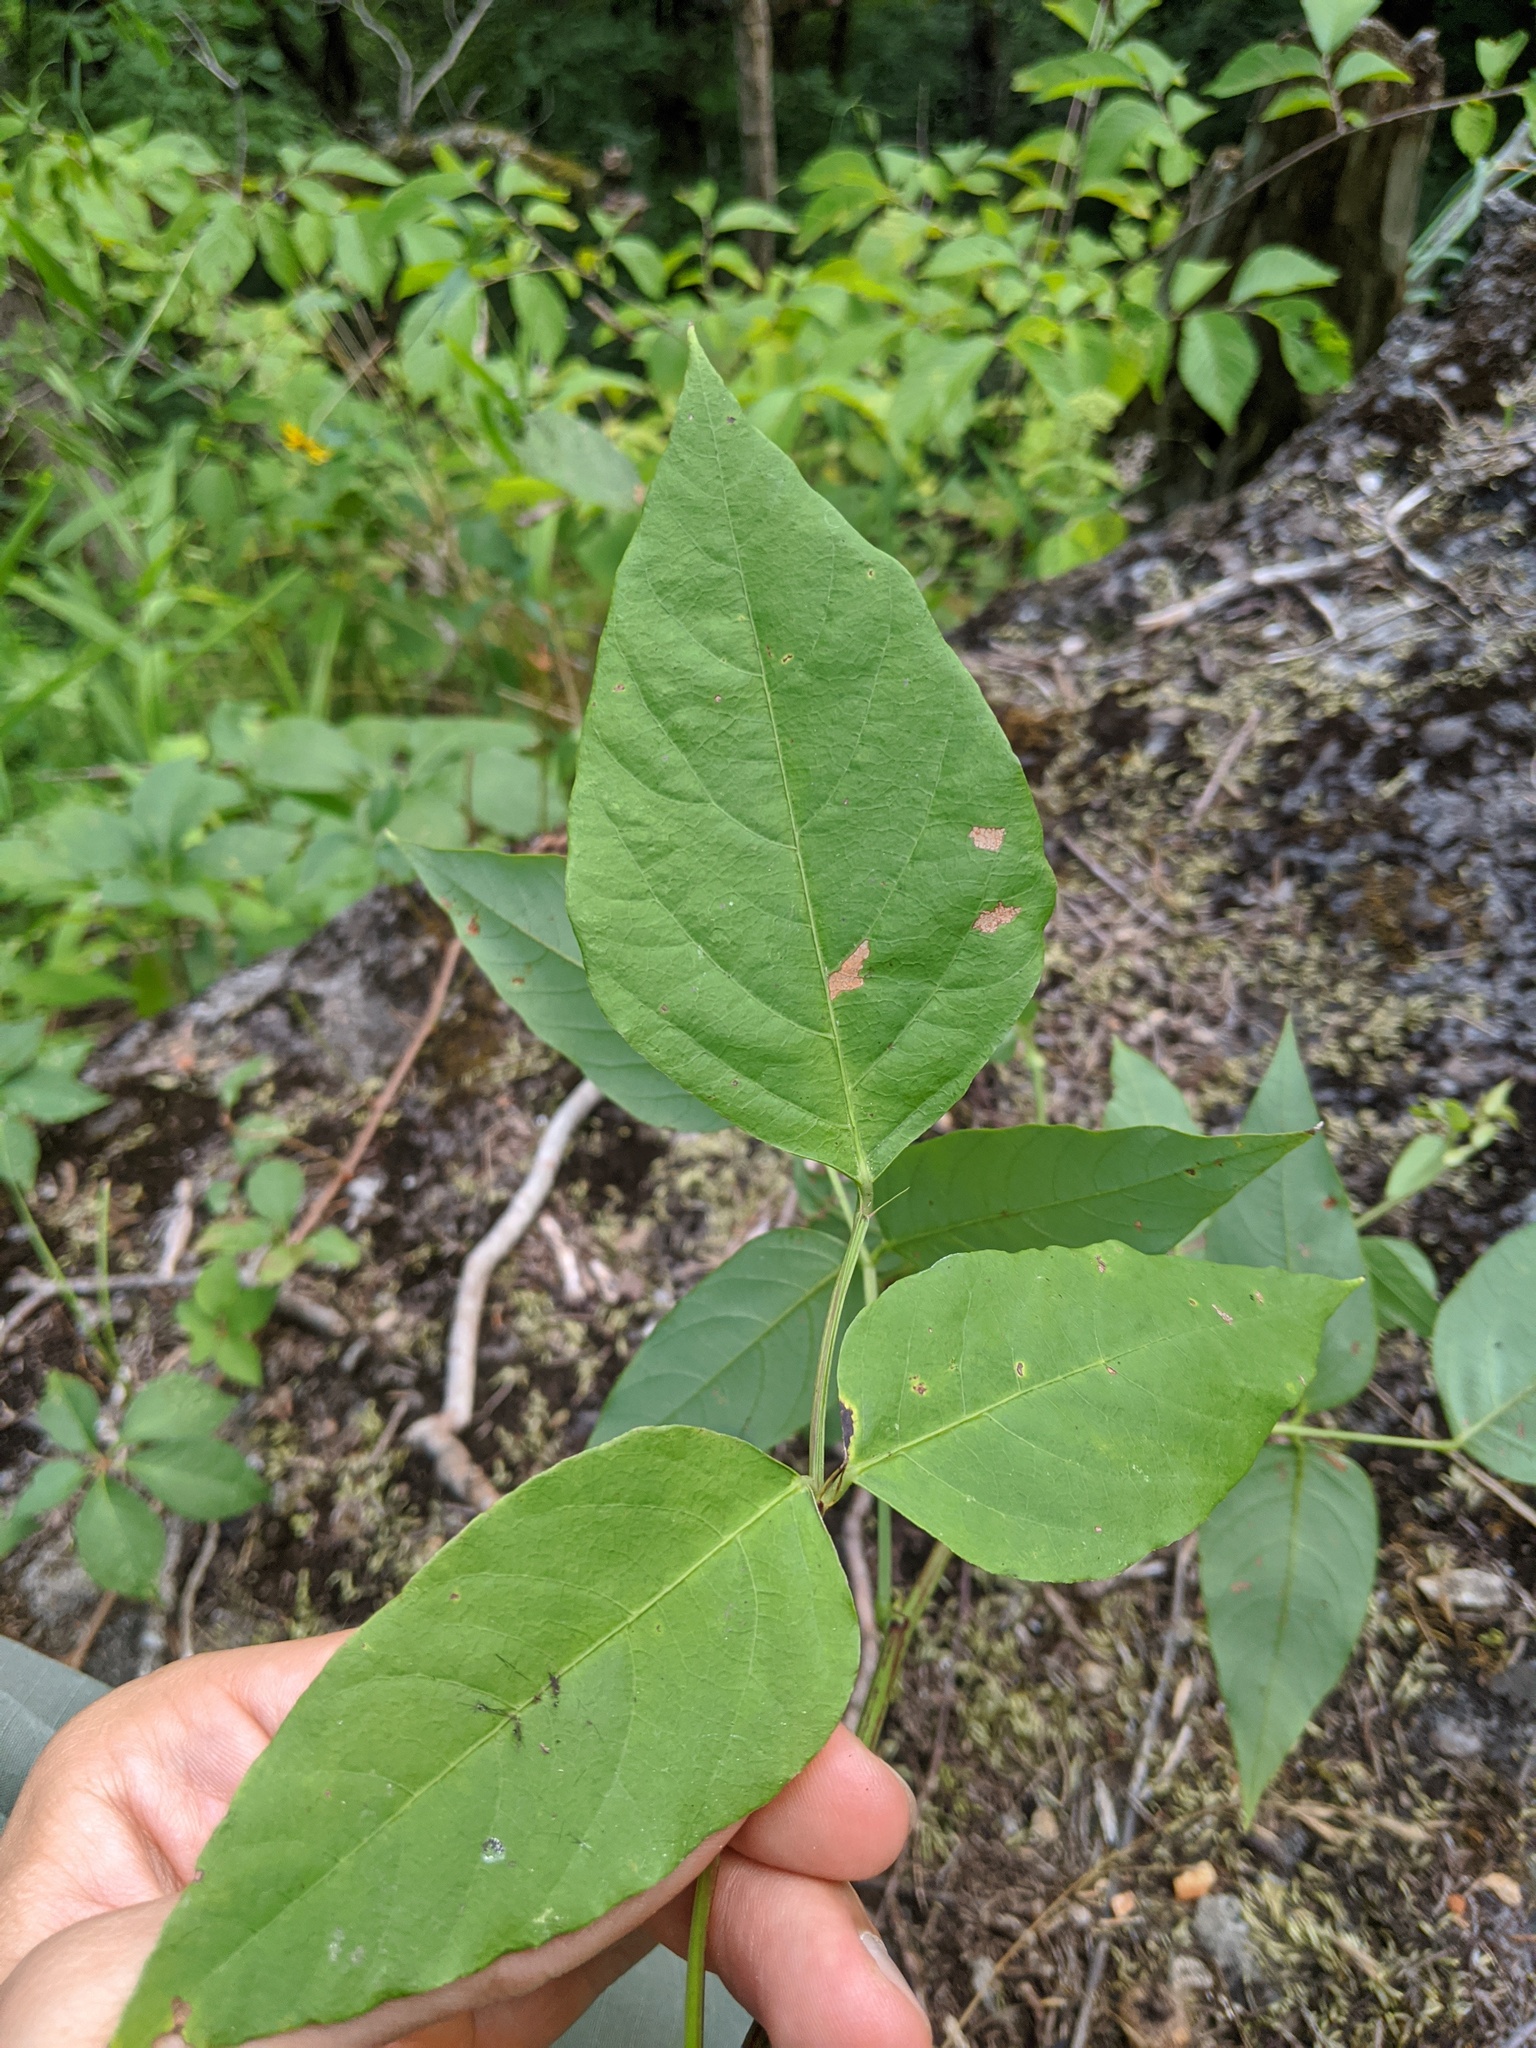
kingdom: Plantae
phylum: Tracheophyta
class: Magnoliopsida
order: Fabales
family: Fabaceae
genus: Desmodium
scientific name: Desmodium cuspidatum
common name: Big tick trefoil
